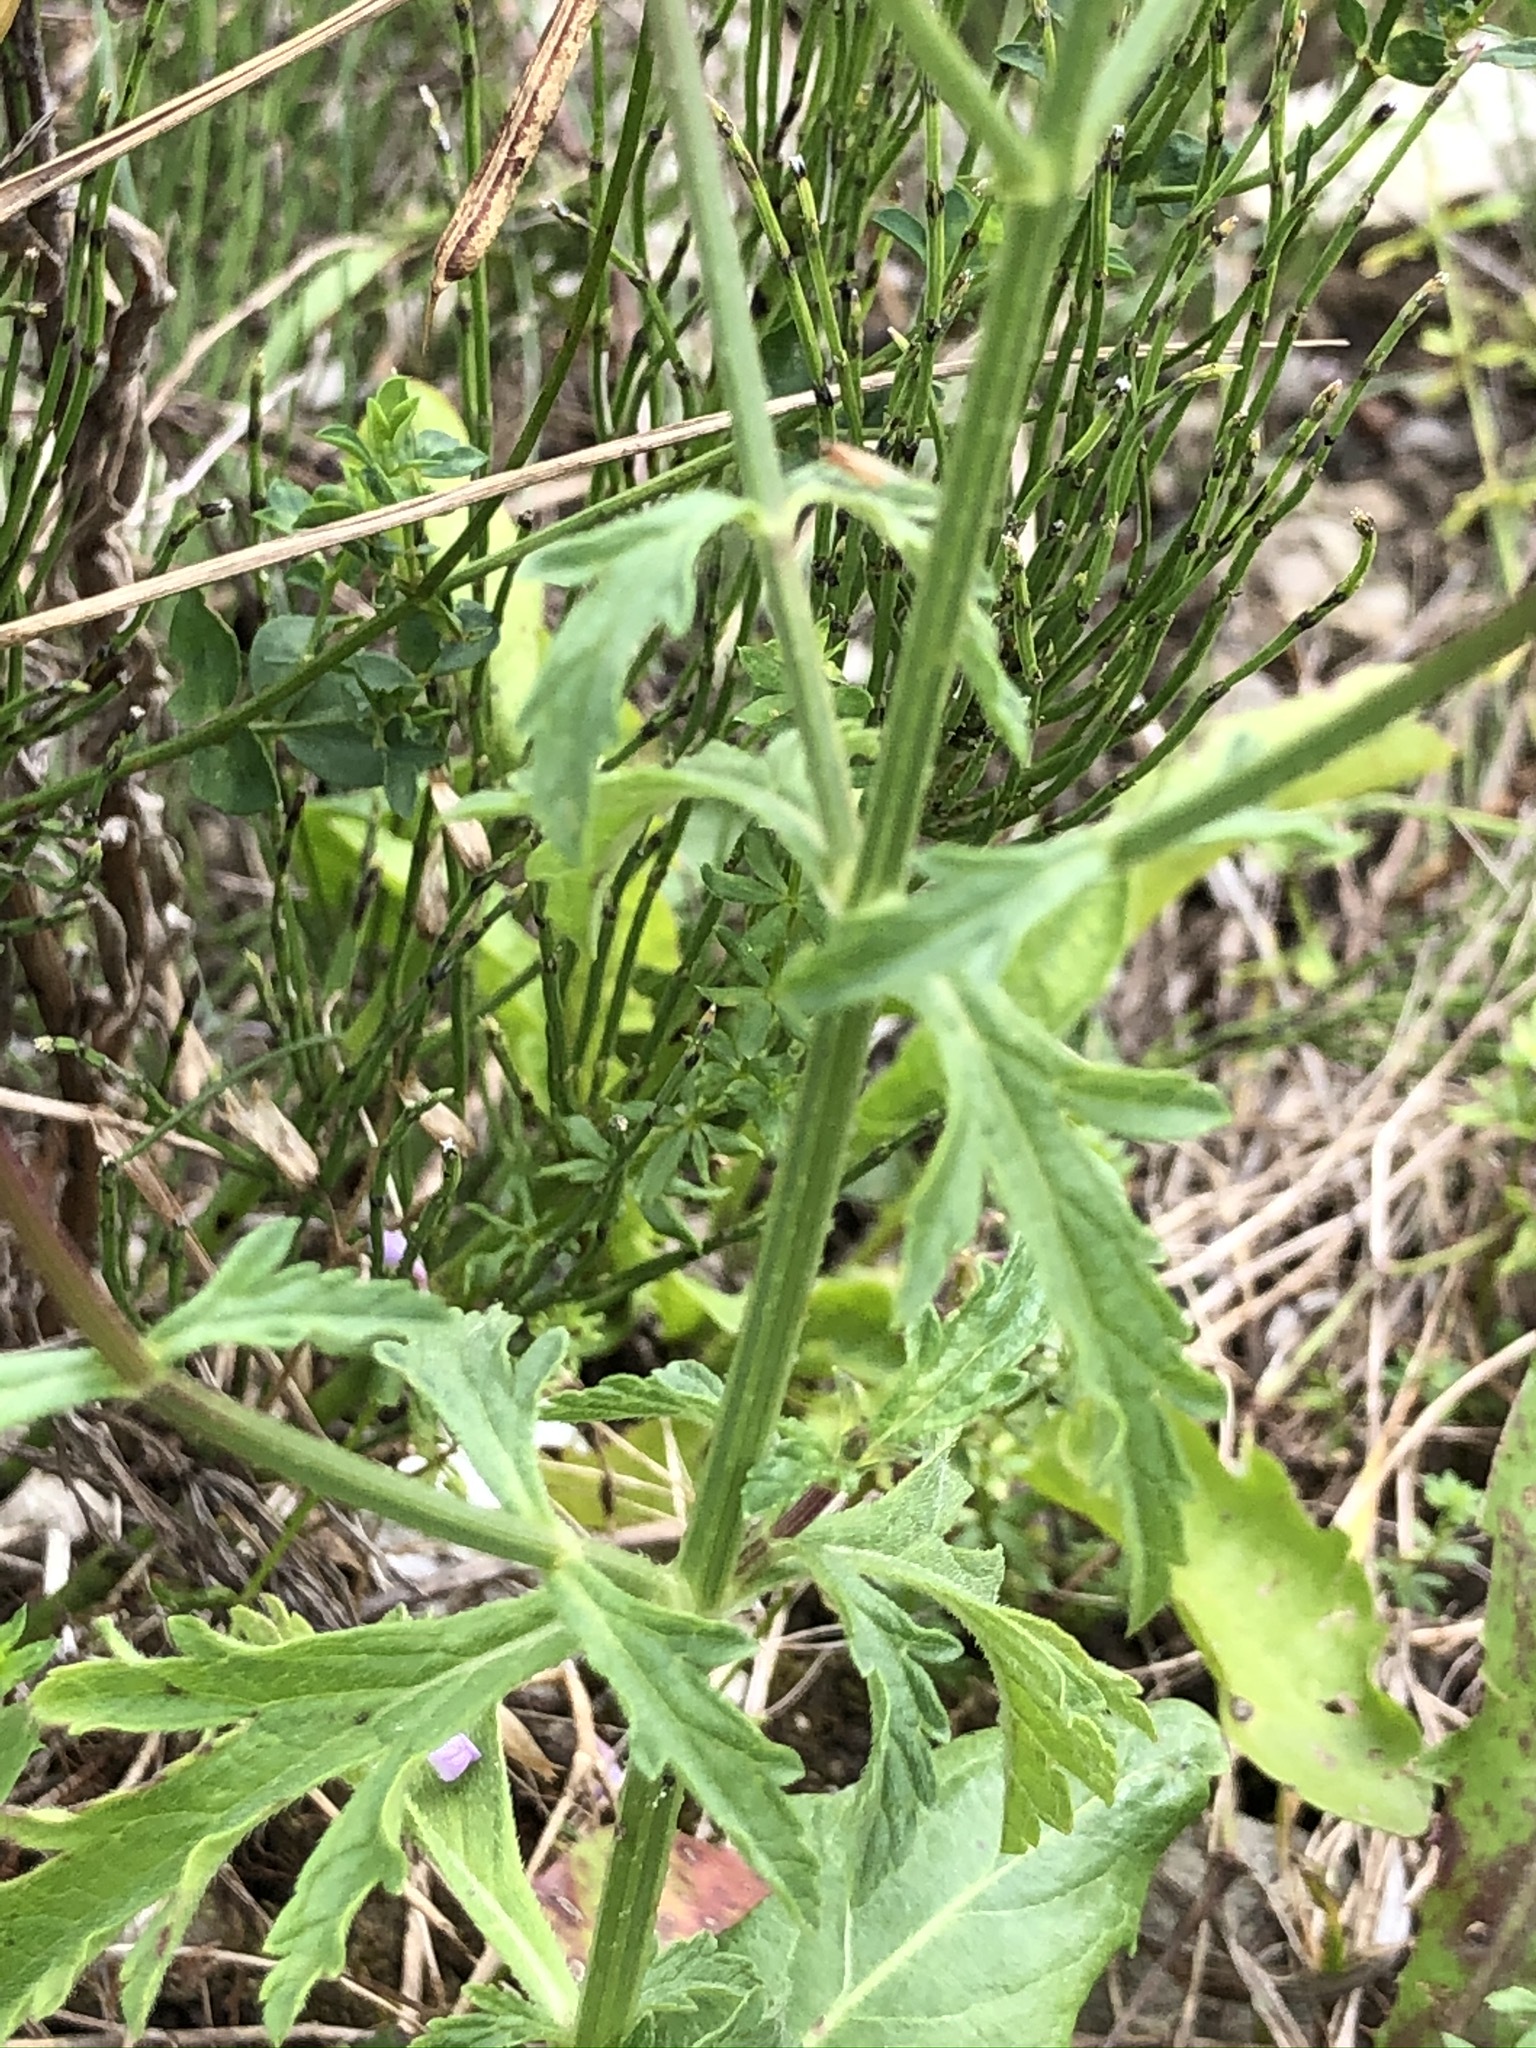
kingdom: Plantae
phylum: Tracheophyta
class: Magnoliopsida
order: Lamiales
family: Verbenaceae
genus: Verbena
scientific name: Verbena officinalis
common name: Vervain
